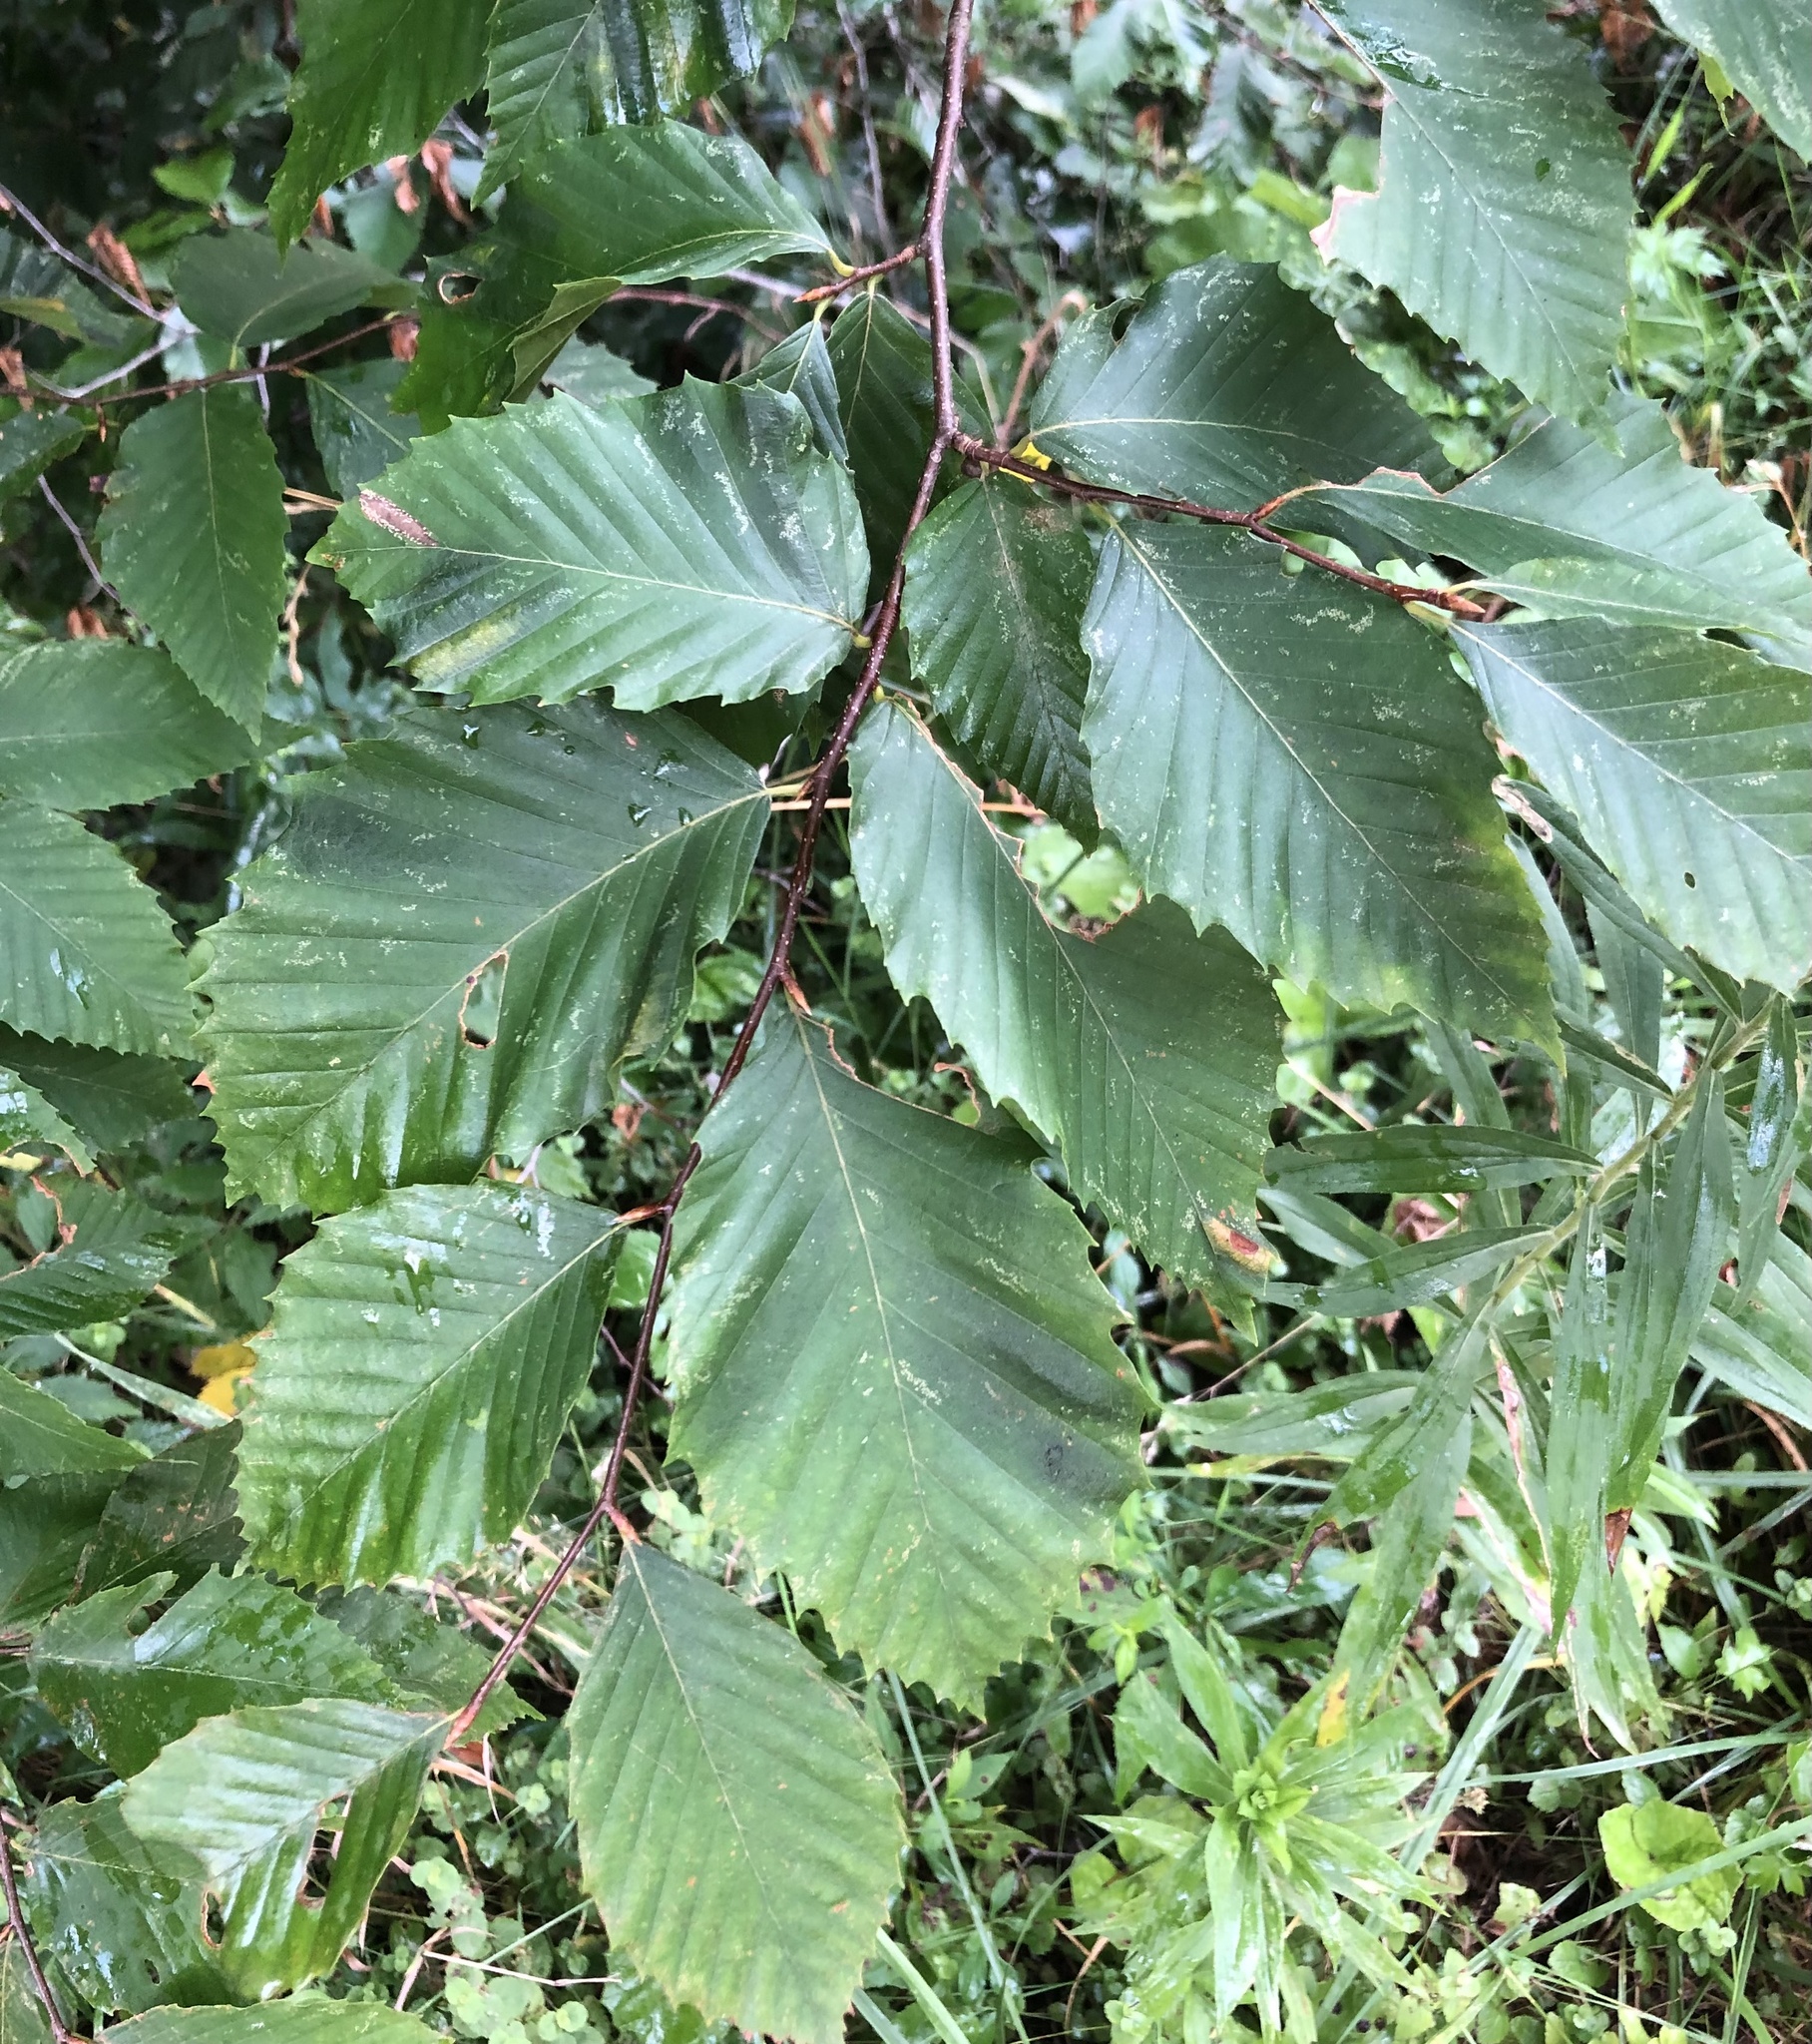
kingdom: Plantae
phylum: Tracheophyta
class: Magnoliopsida
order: Fagales
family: Fagaceae
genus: Fagus
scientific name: Fagus grandifolia
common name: American beech
